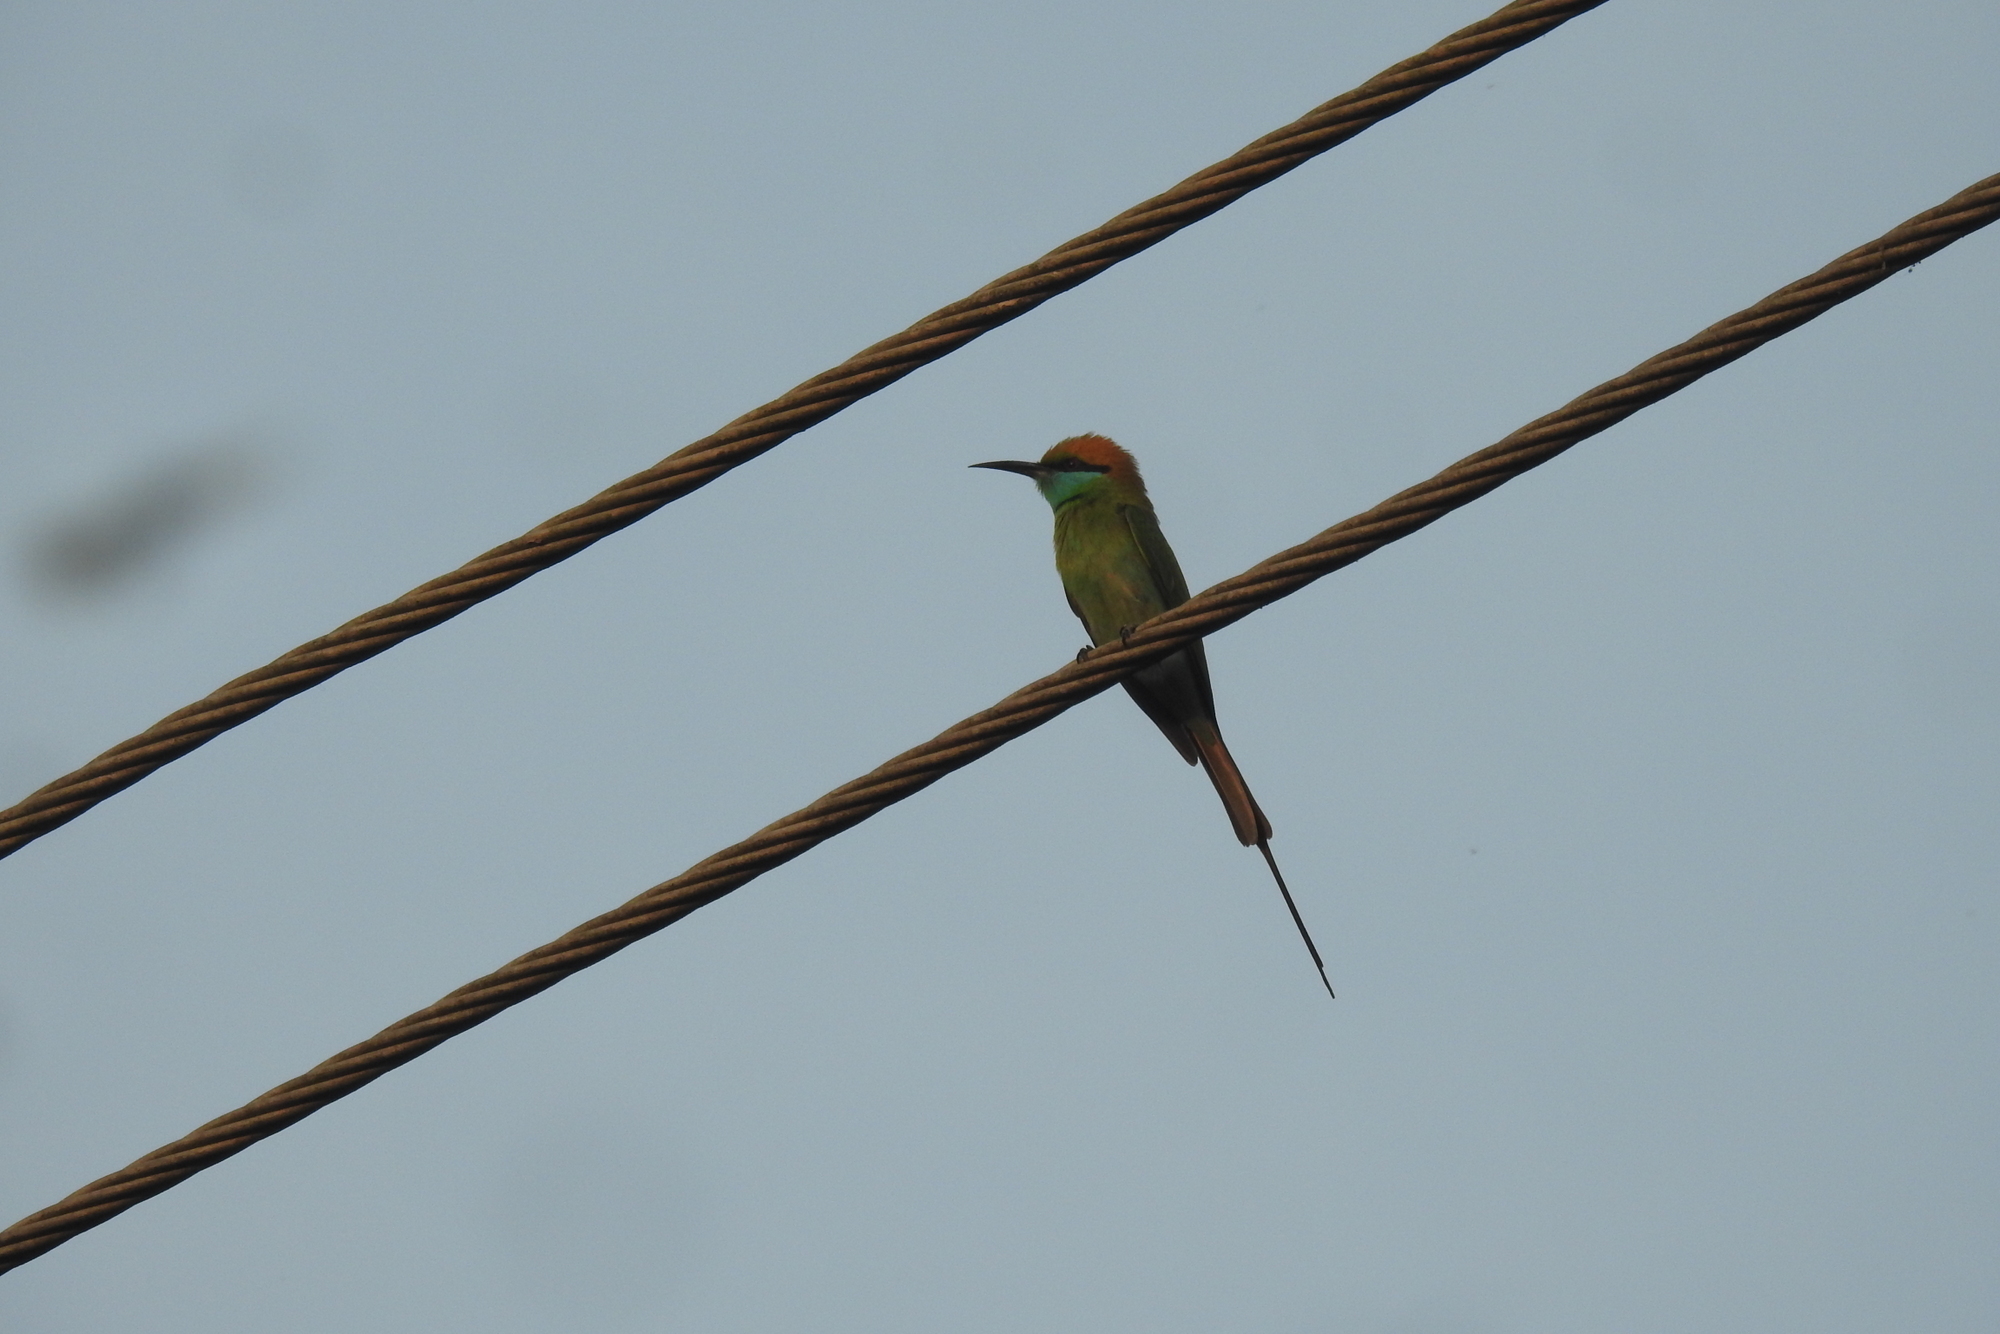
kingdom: Animalia
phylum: Chordata
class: Aves
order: Coraciiformes
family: Meropidae
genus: Merops
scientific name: Merops orientalis
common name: Green bee-eater
